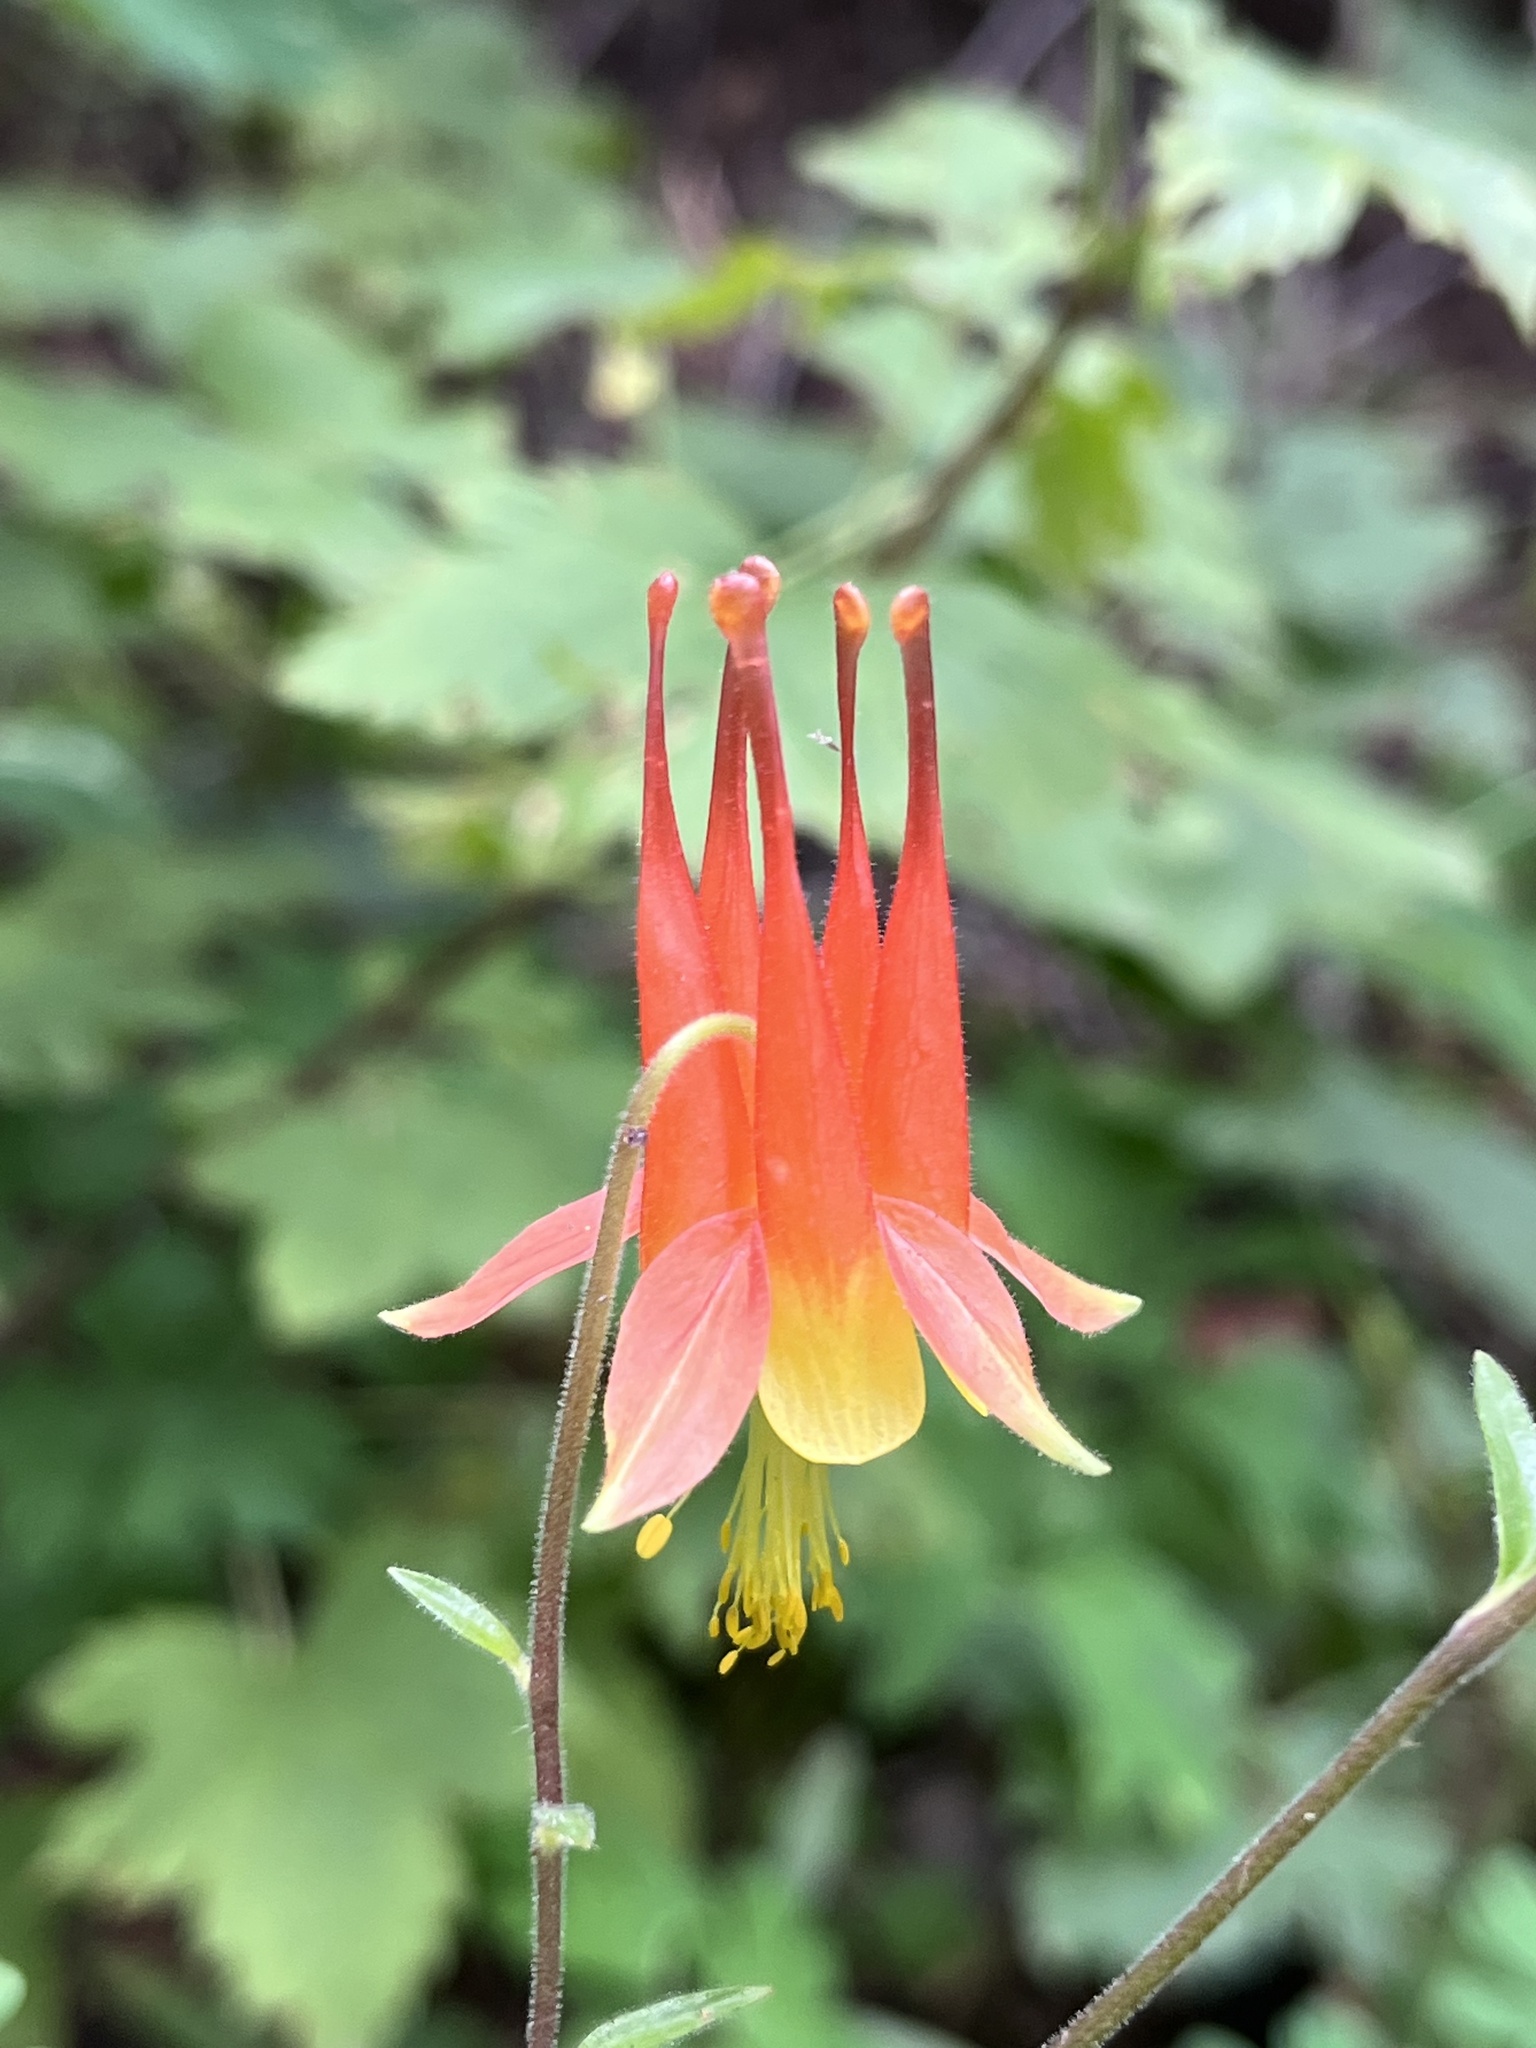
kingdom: Plantae
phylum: Tracheophyta
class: Magnoliopsida
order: Ranunculales
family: Ranunculaceae
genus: Aquilegia
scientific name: Aquilegia desertorum
